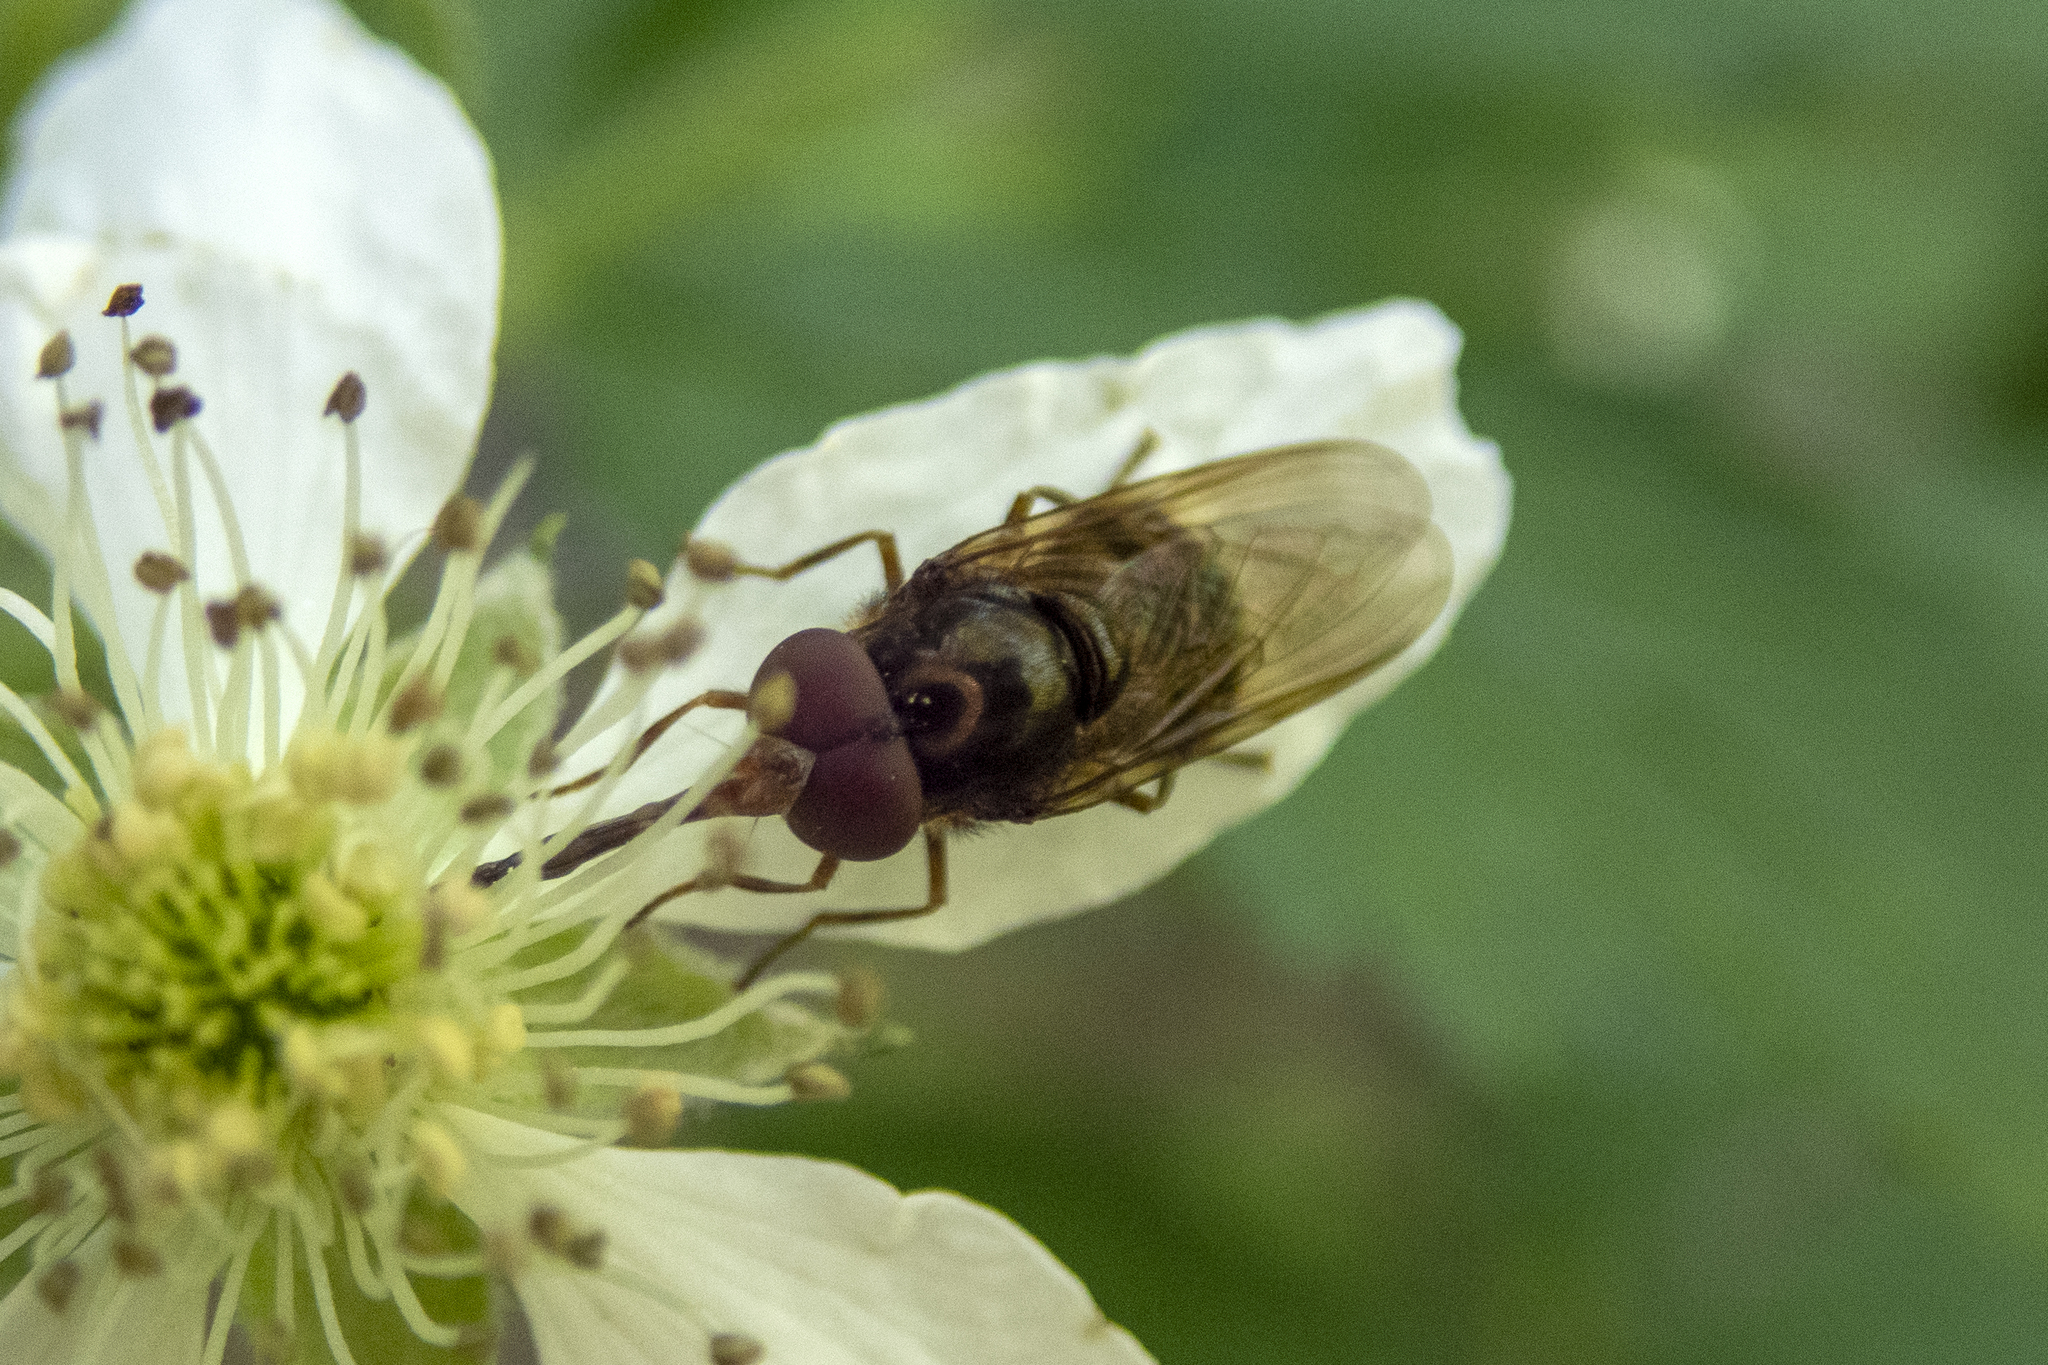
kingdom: Animalia
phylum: Arthropoda
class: Insecta
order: Diptera
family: Syrphidae
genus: Rhingia
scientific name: Rhingia nasica
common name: American snout fly
